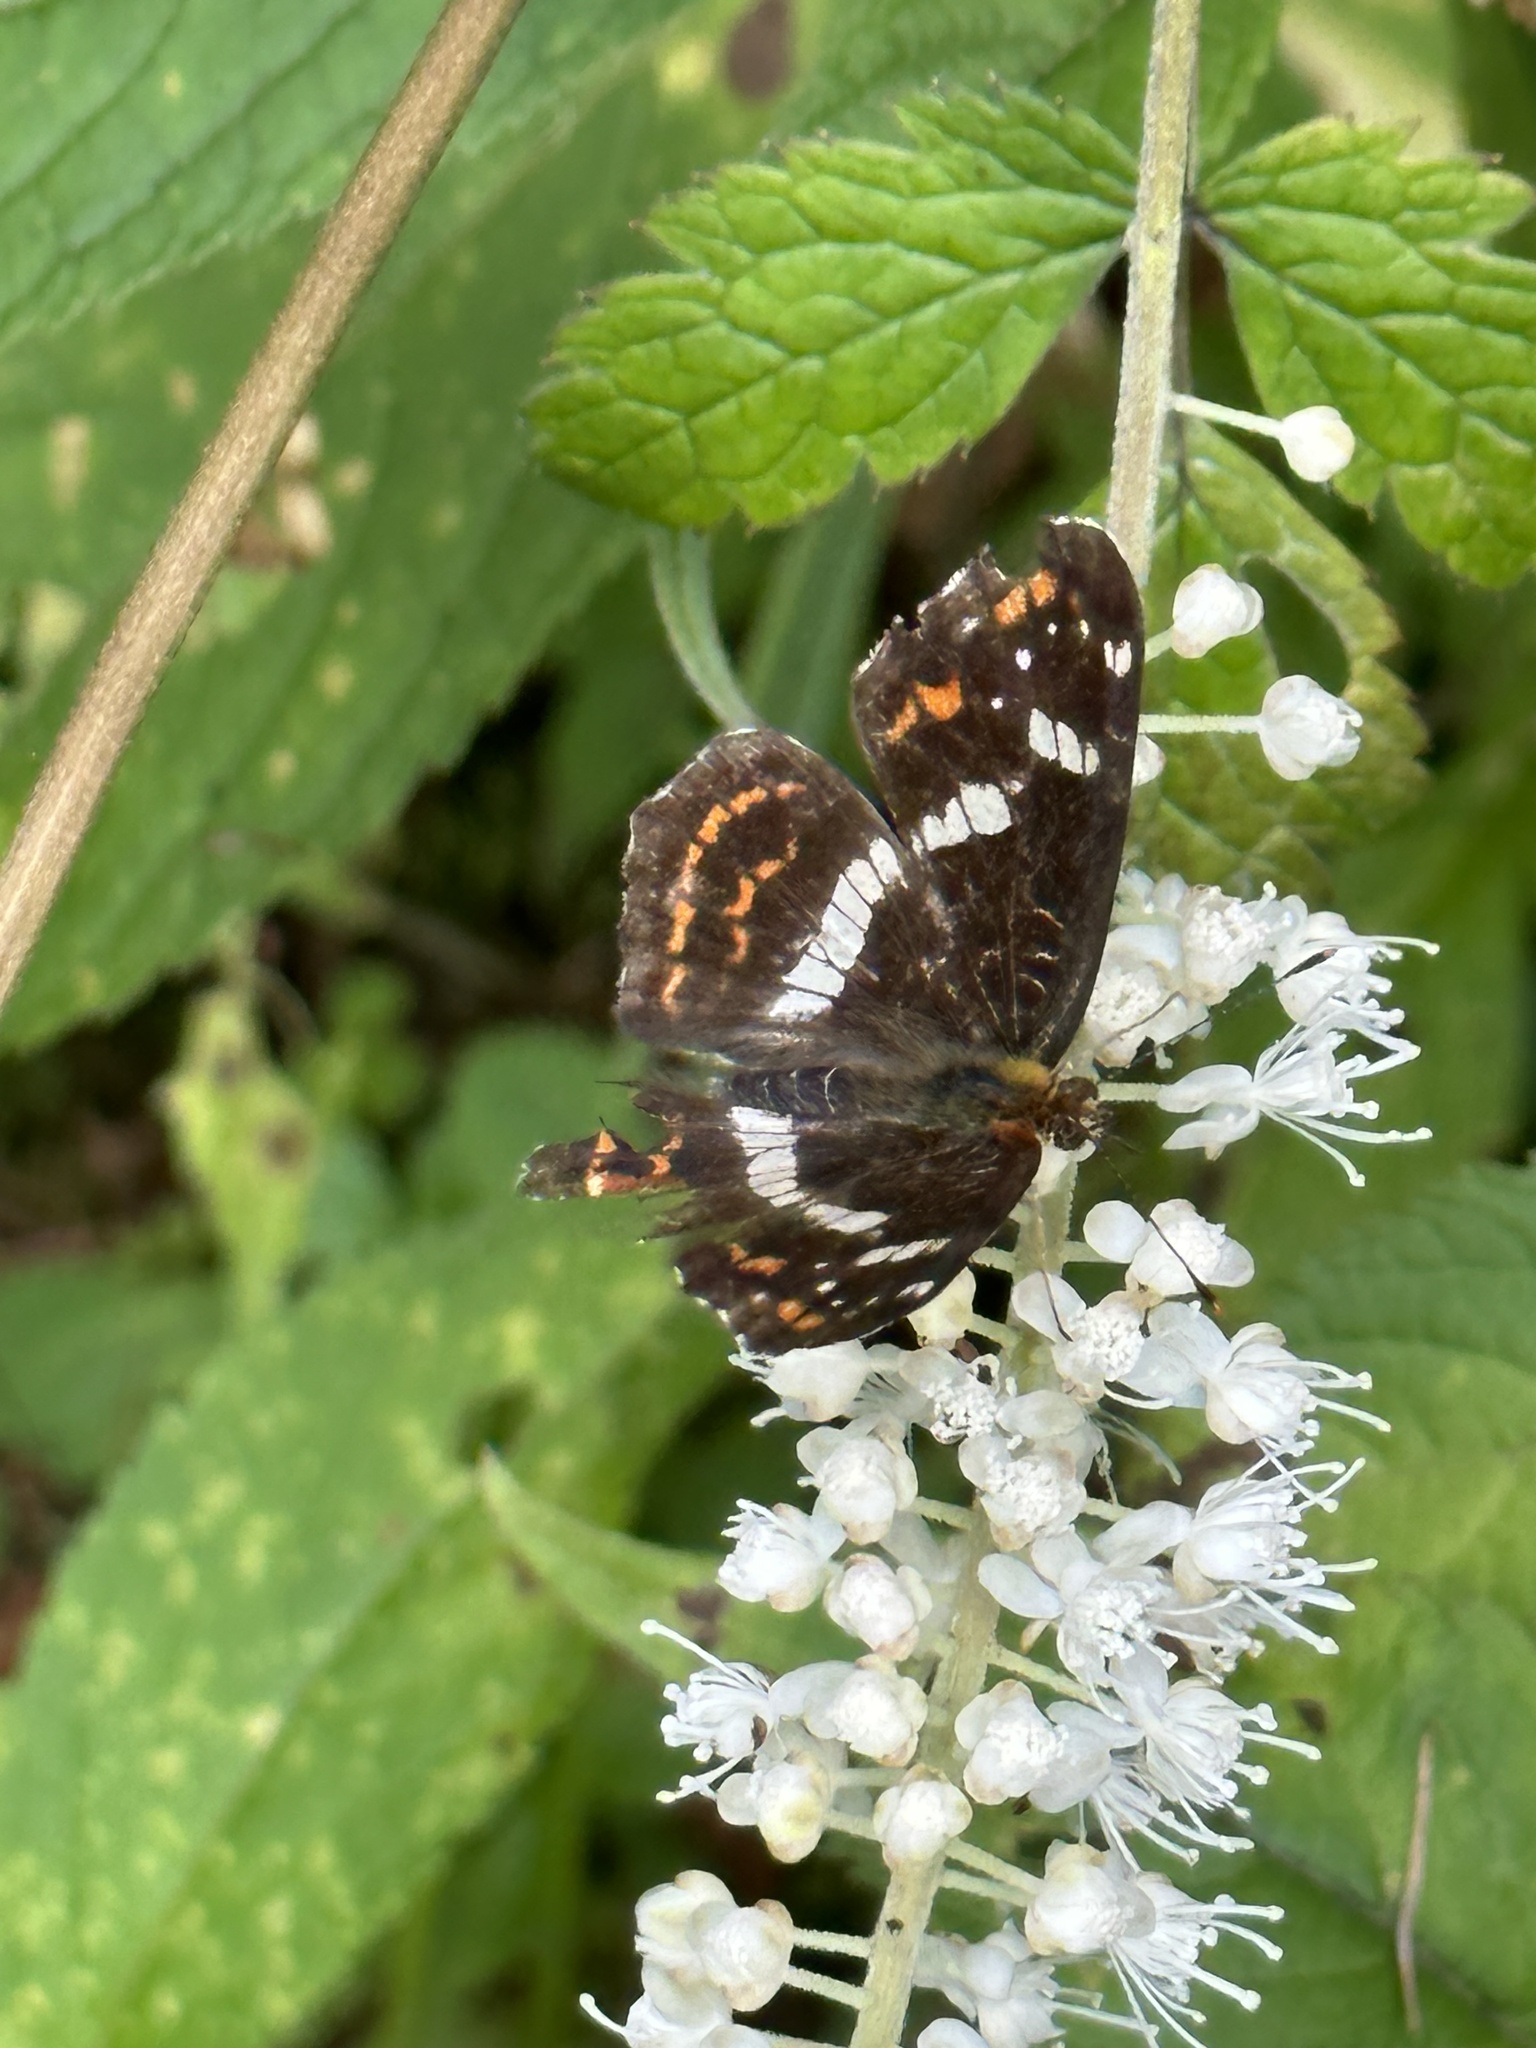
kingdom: Animalia
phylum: Arthropoda
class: Insecta
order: Lepidoptera
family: Nymphalidae
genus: Araschnia
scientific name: Araschnia burejana
